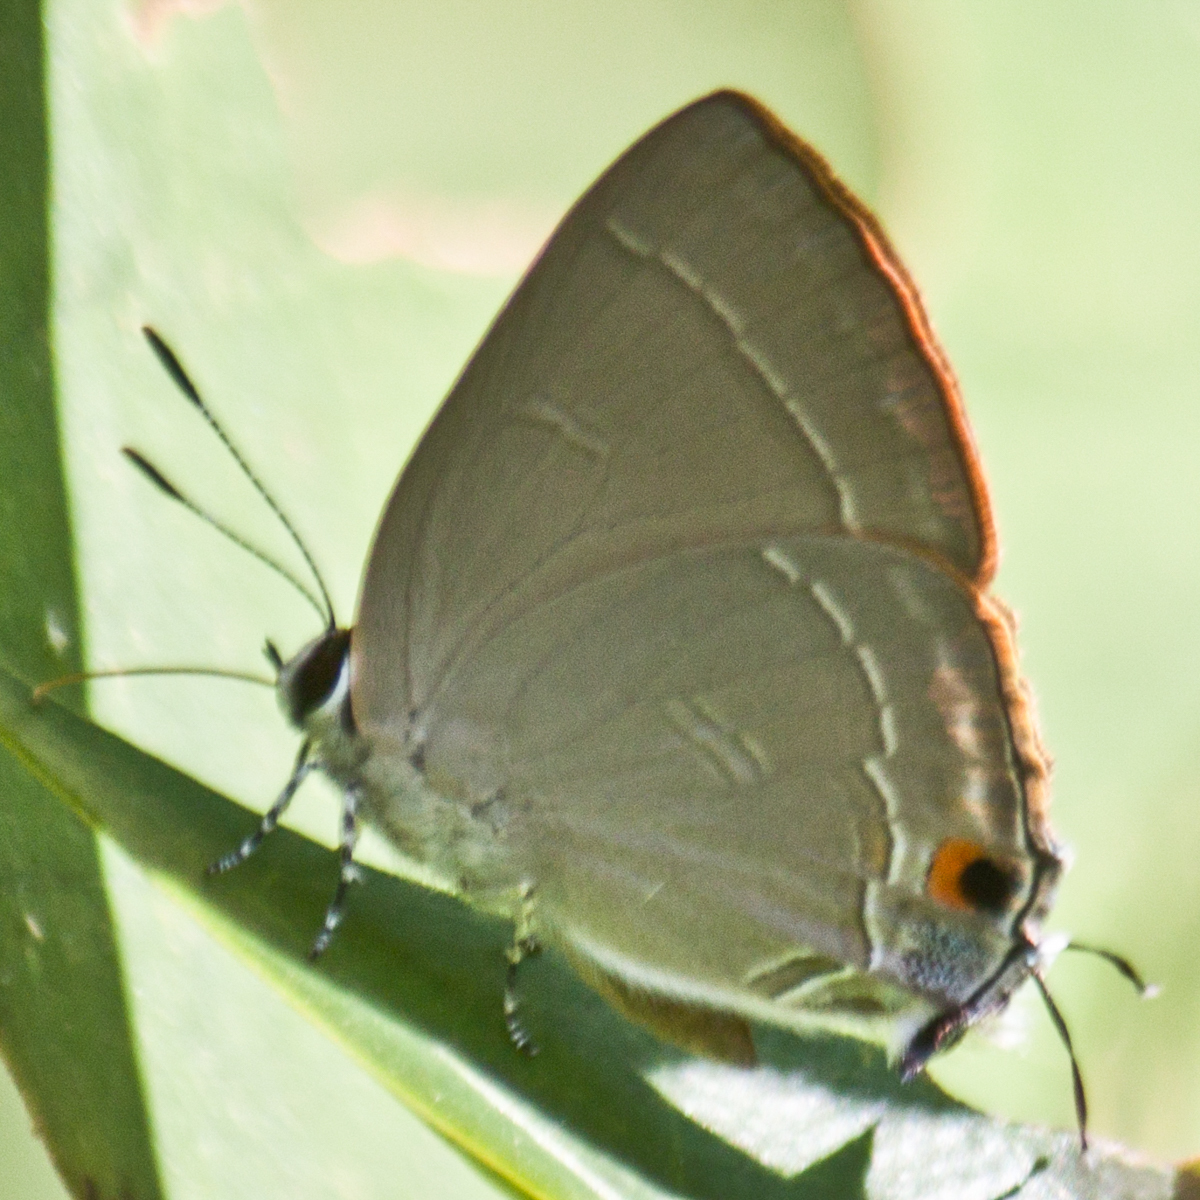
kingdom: Animalia
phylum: Arthropoda
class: Insecta
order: Lepidoptera
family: Lycaenidae
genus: Rapala
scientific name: Rapala iarbas
